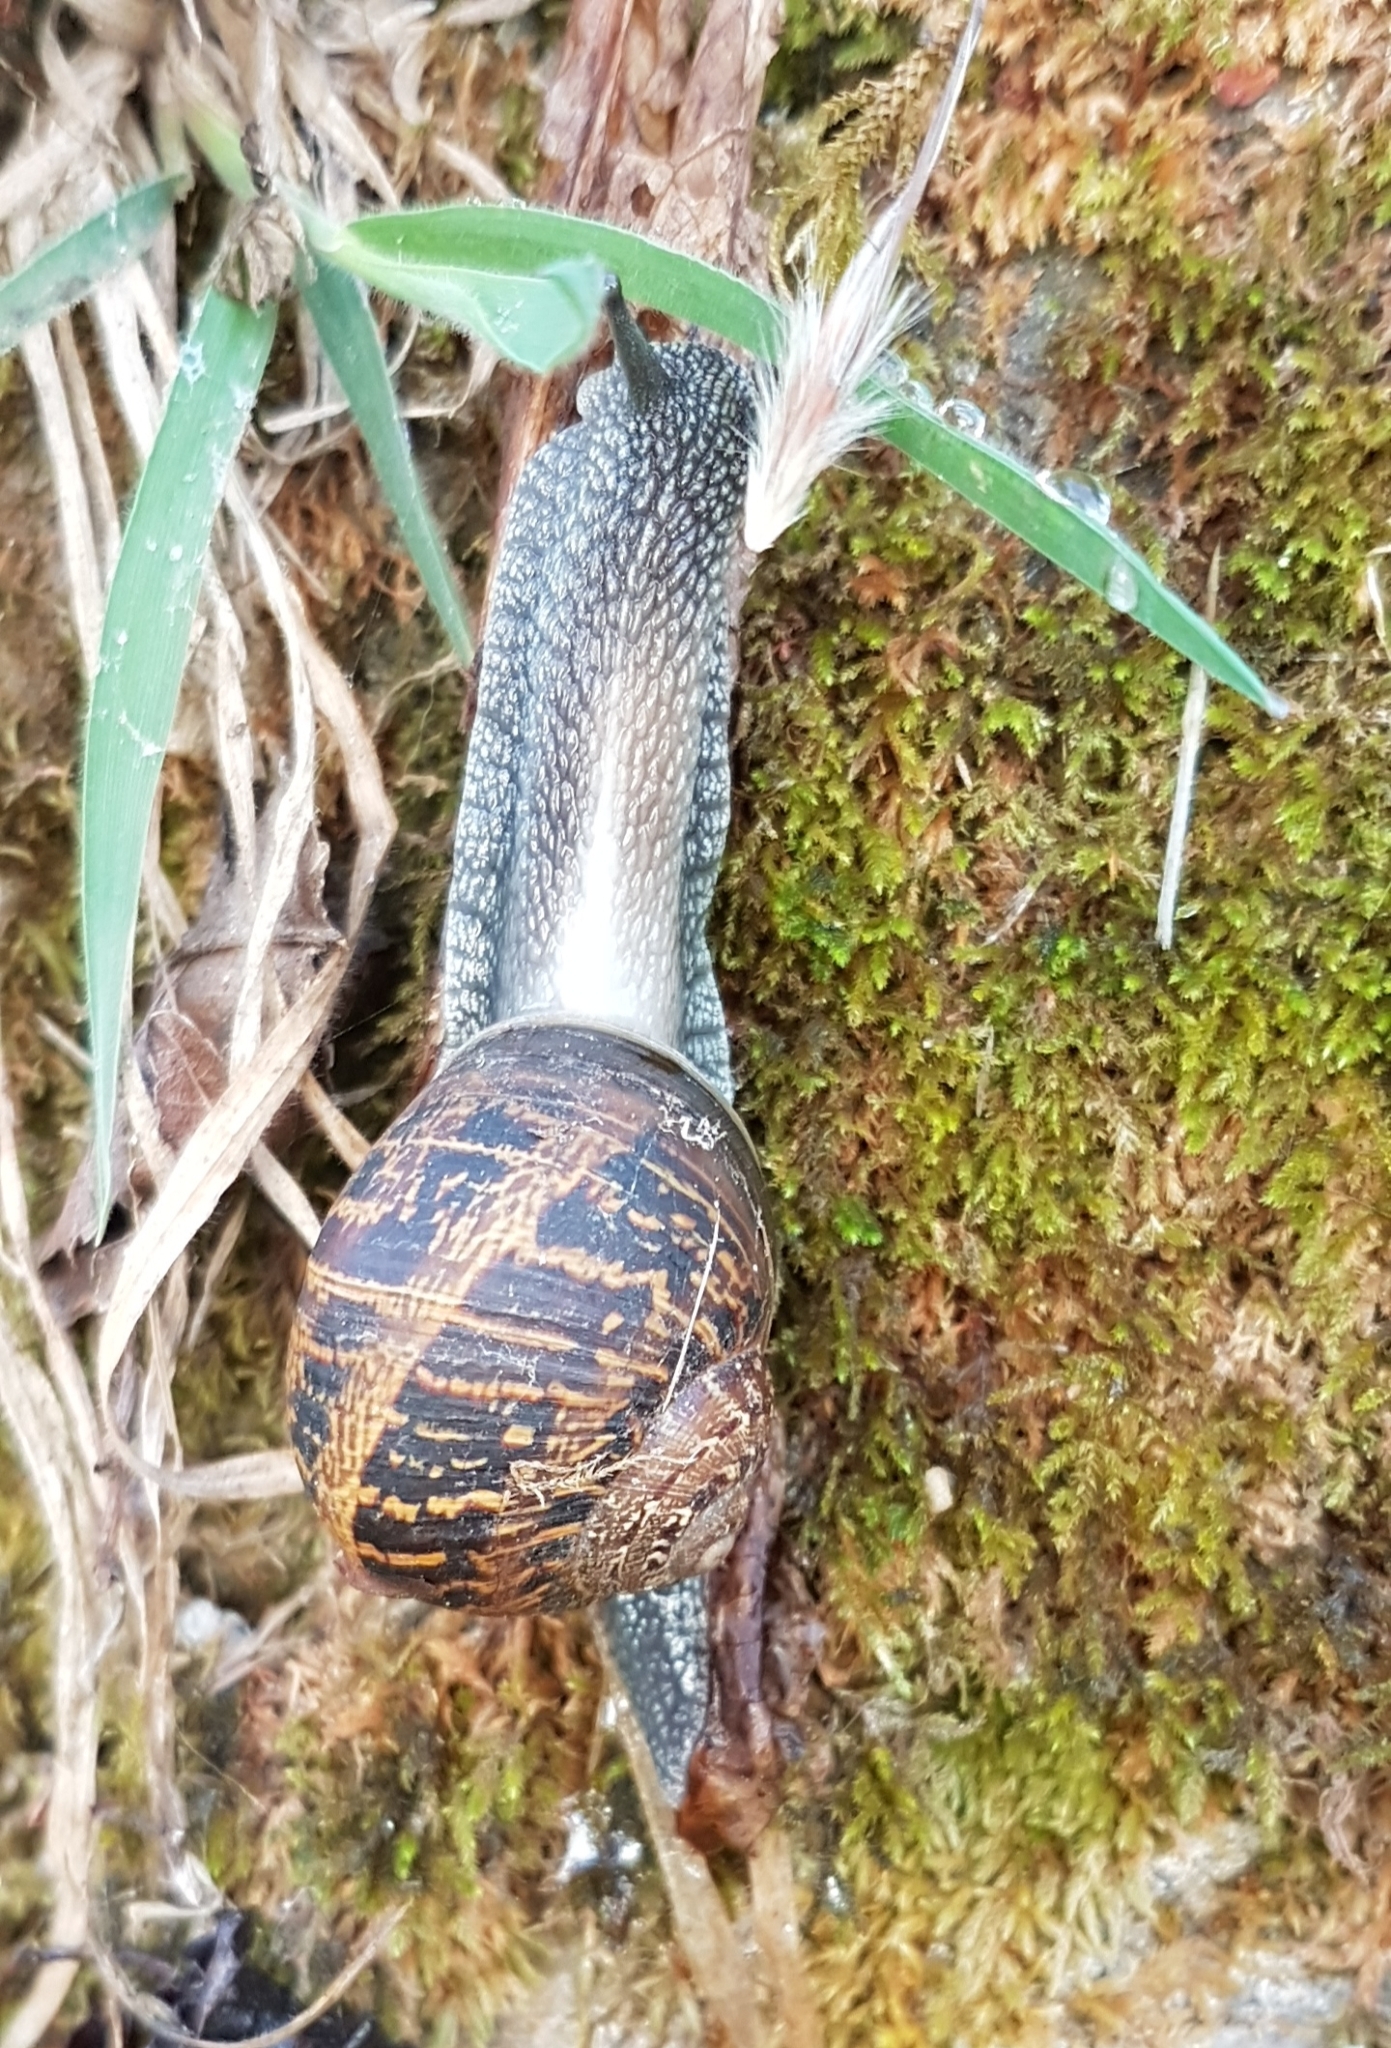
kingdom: Animalia
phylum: Mollusca
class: Gastropoda
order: Stylommatophora
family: Helicidae
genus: Cornu
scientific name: Cornu aspersum
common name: Brown garden snail
